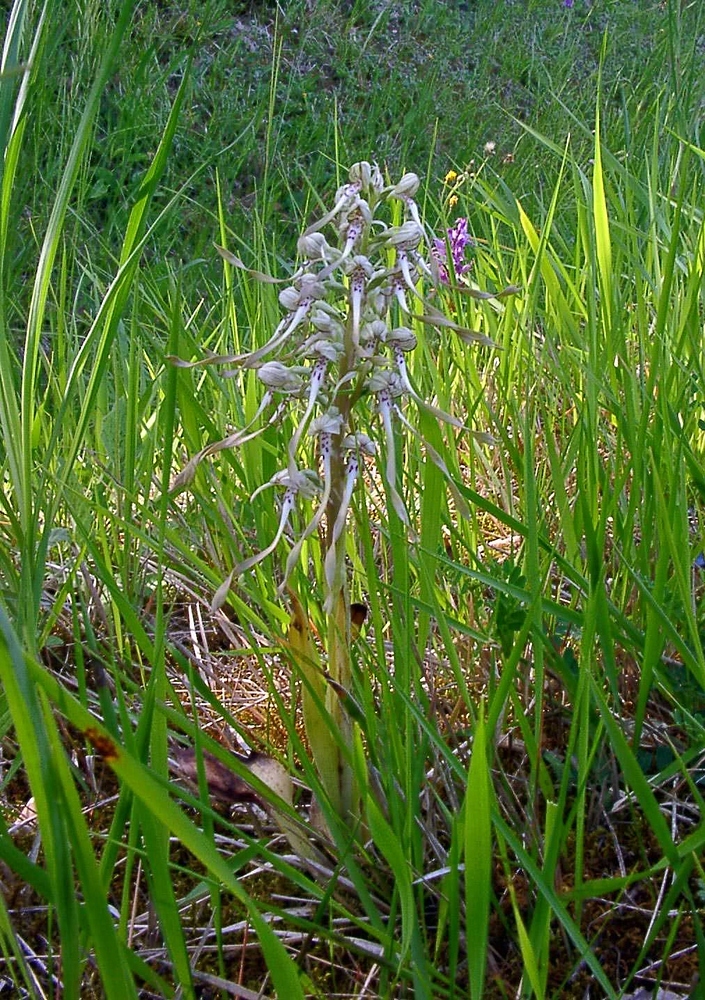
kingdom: Plantae
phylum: Tracheophyta
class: Liliopsida
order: Asparagales
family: Orchidaceae
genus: Himantoglossum
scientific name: Himantoglossum hircinum
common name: Lizard orchid
